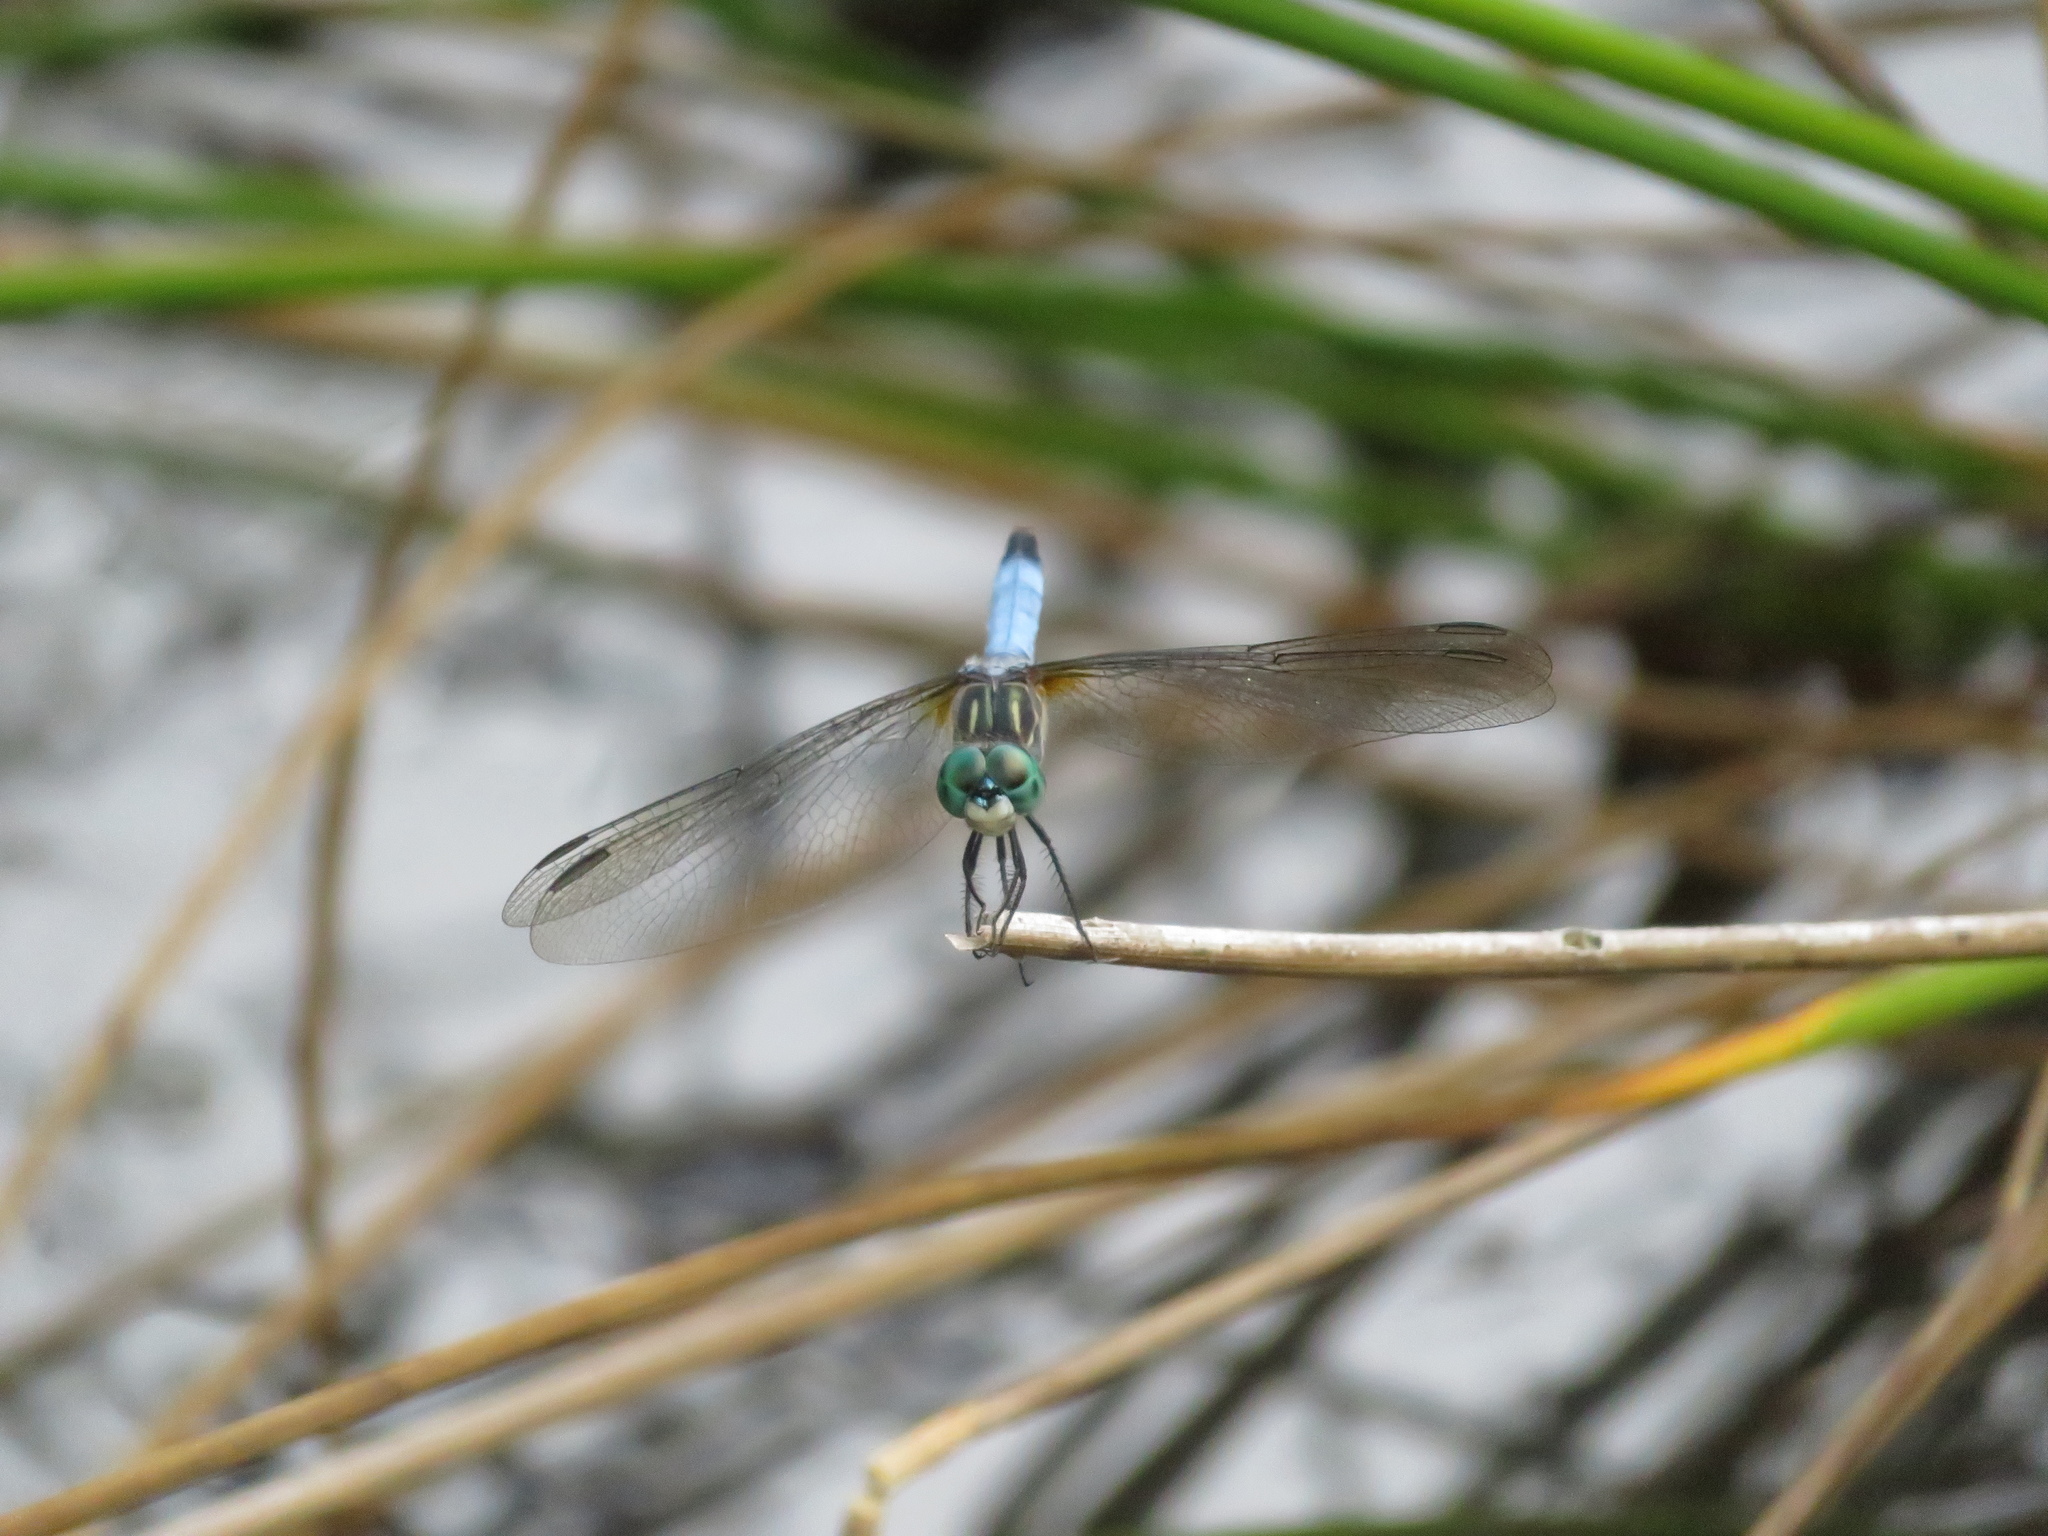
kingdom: Animalia
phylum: Arthropoda
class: Insecta
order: Odonata
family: Libellulidae
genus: Pachydiplax
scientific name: Pachydiplax longipennis
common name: Blue dasher
